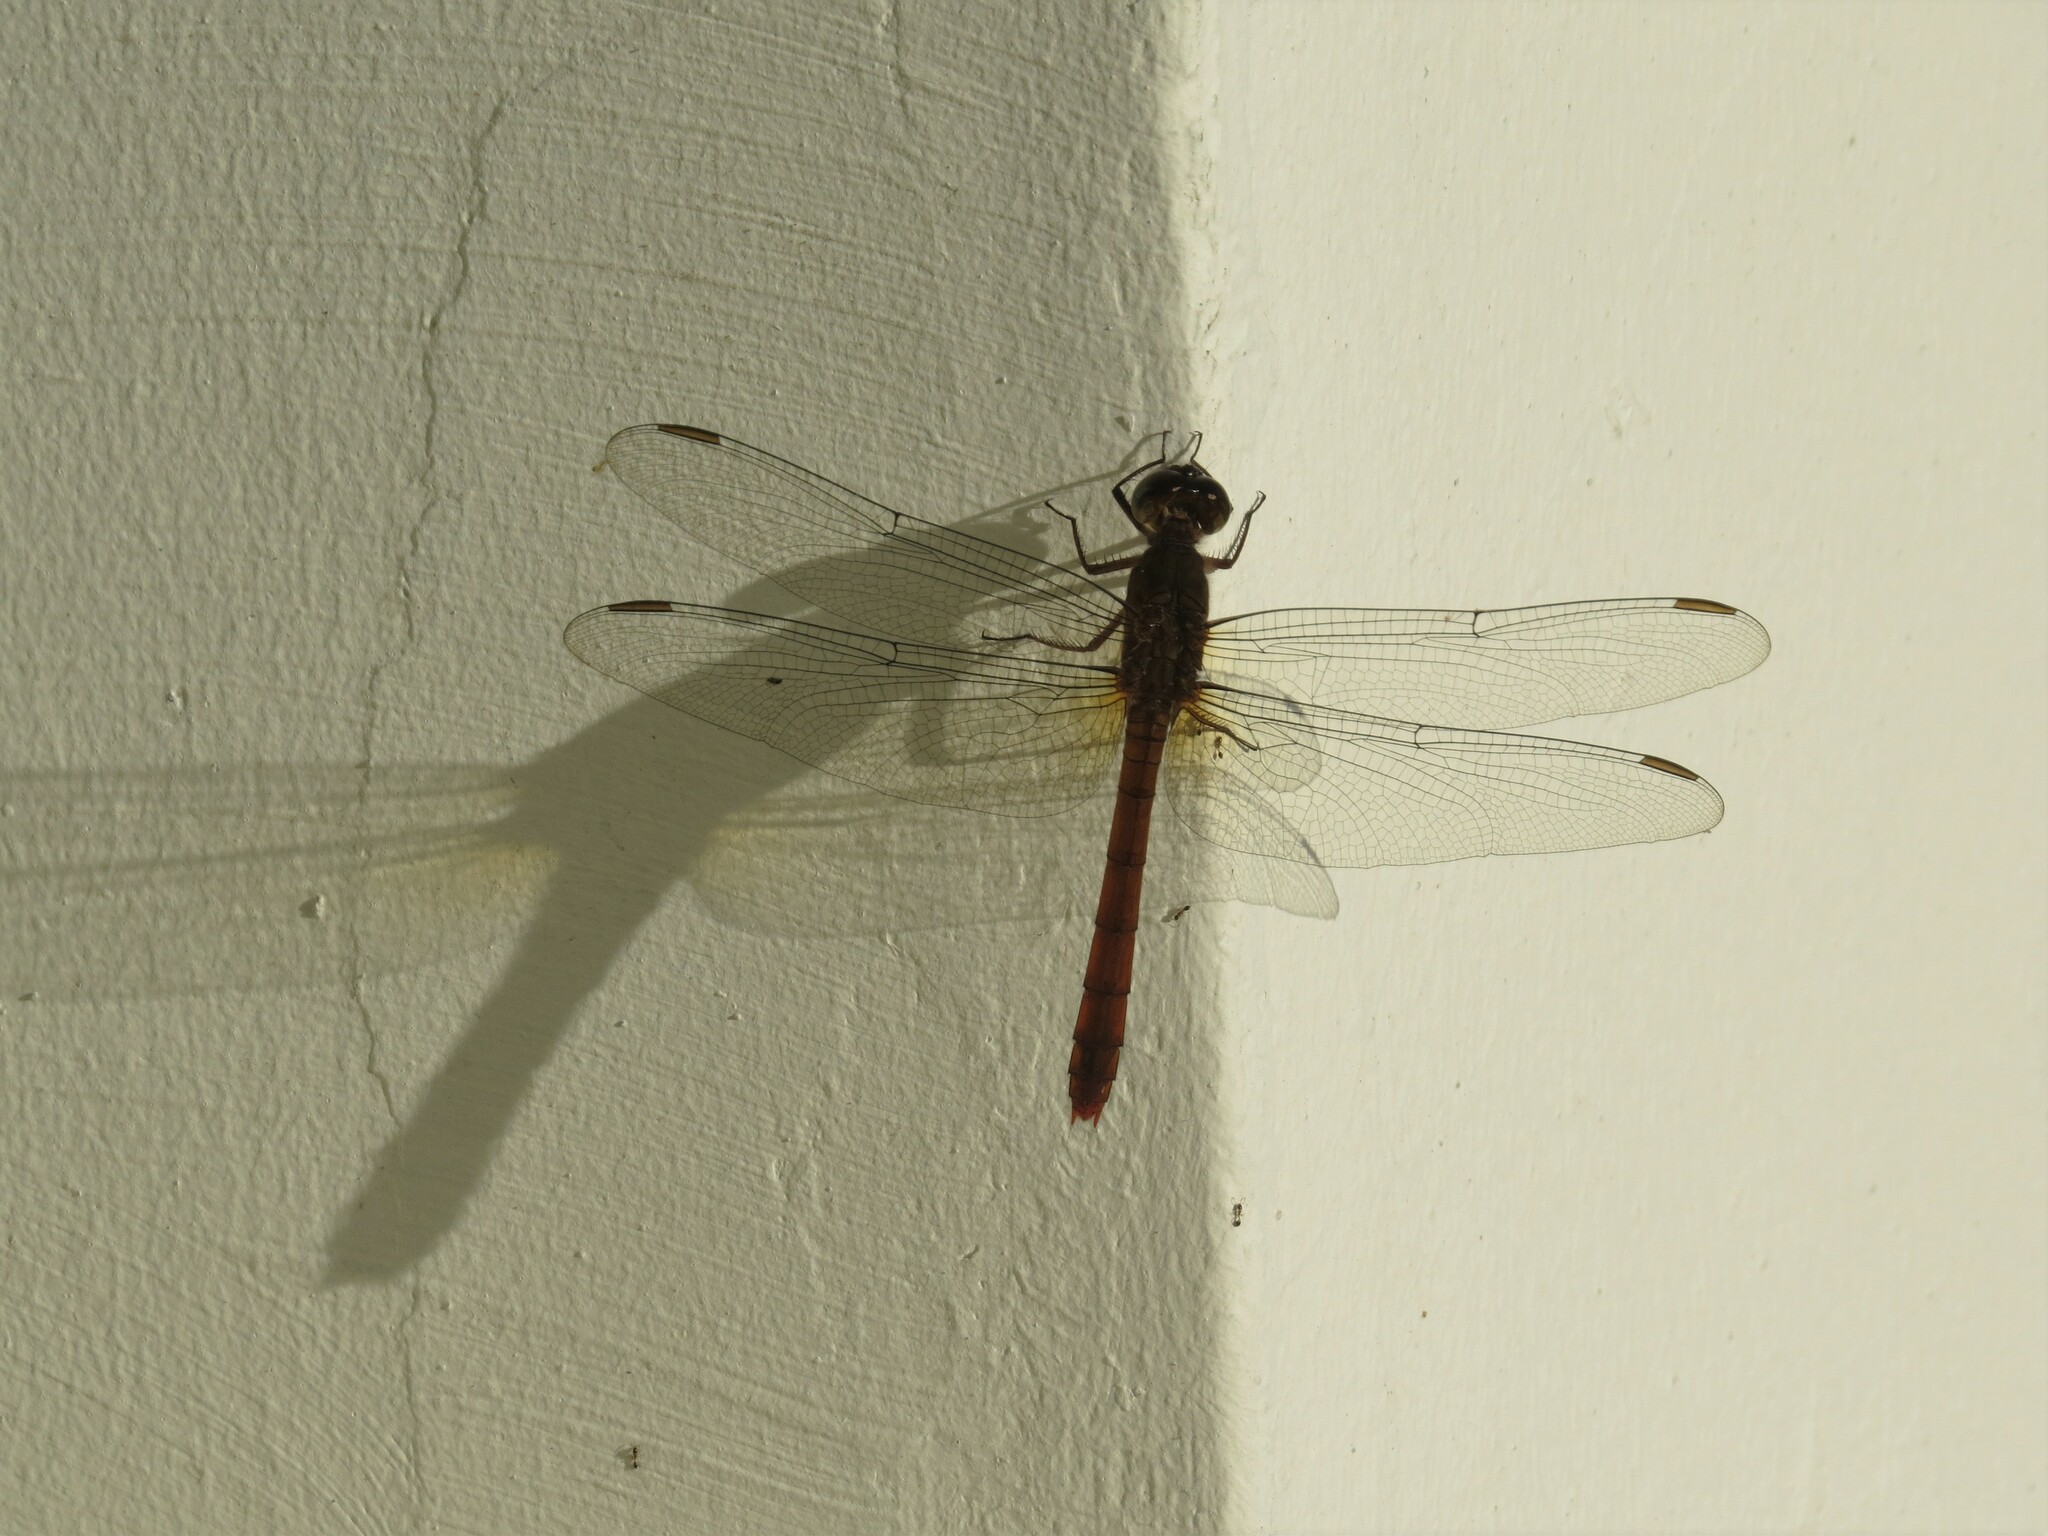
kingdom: Animalia
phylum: Arthropoda
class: Insecta
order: Odonata
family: Libellulidae
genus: Rhodopygia
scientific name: Rhodopygia hinei
